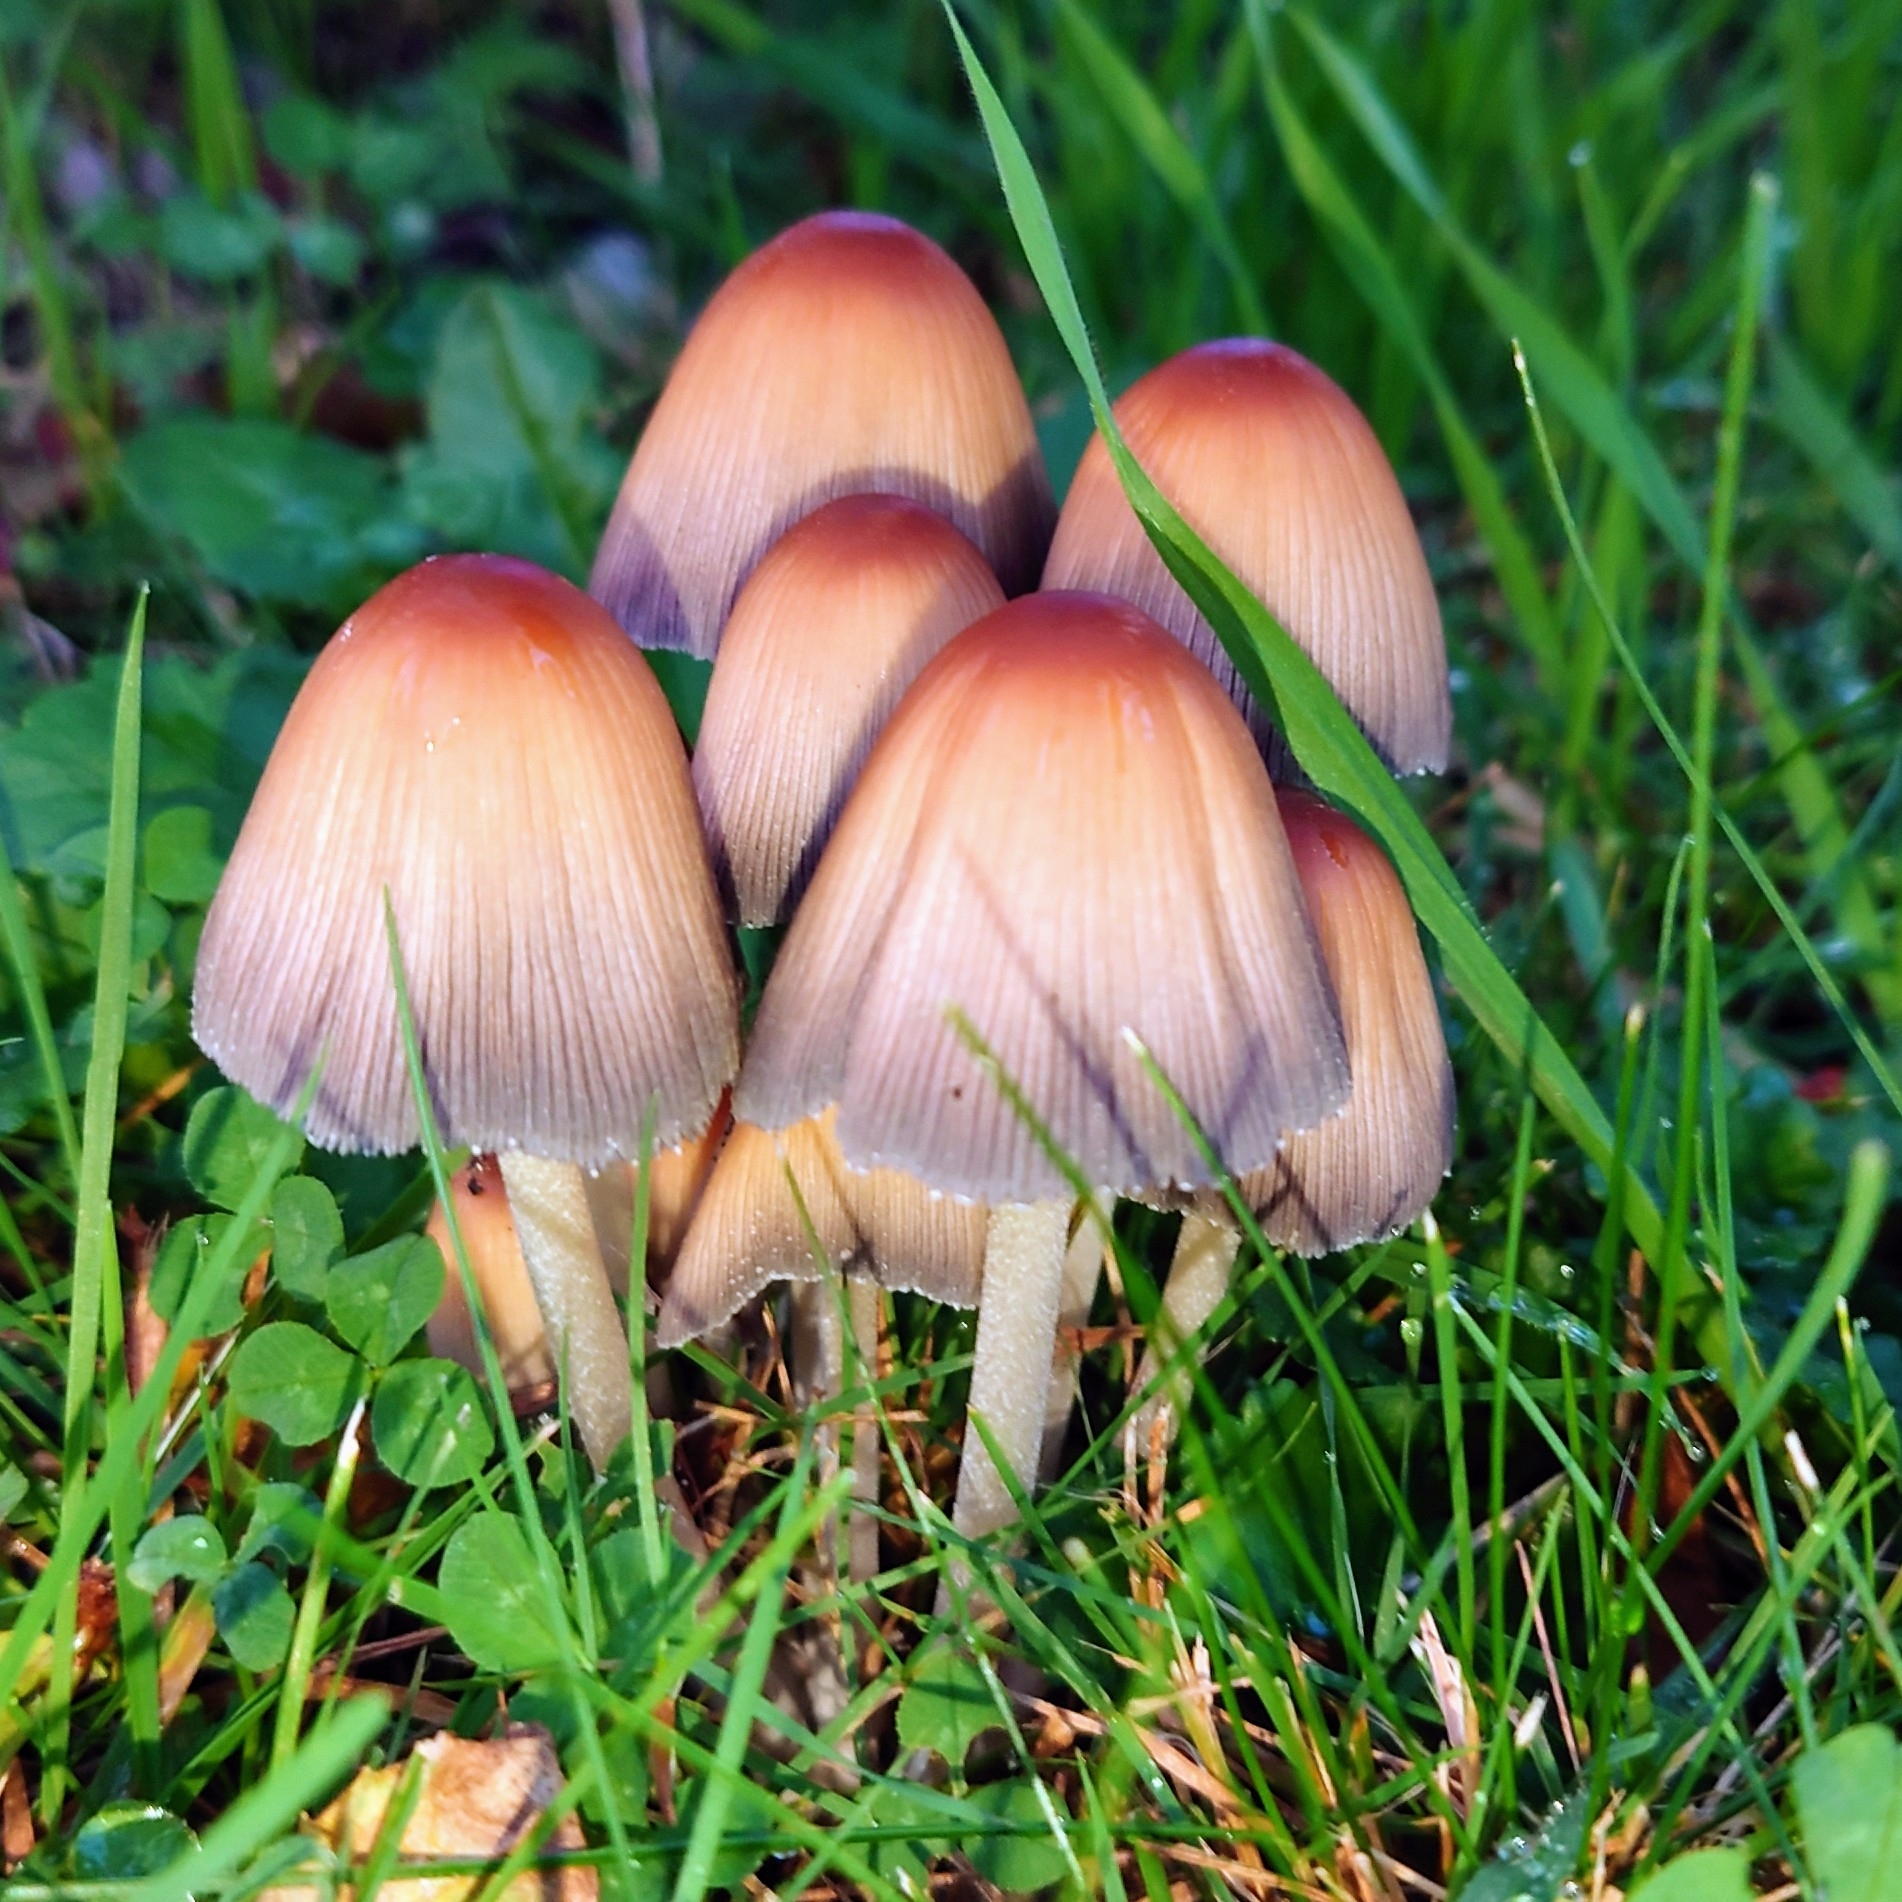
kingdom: Fungi
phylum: Basidiomycota
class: Agaricomycetes
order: Agaricales
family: Psathyrellaceae
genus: Coprinellus
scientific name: Coprinellus micaceus
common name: Glistening ink-cap
